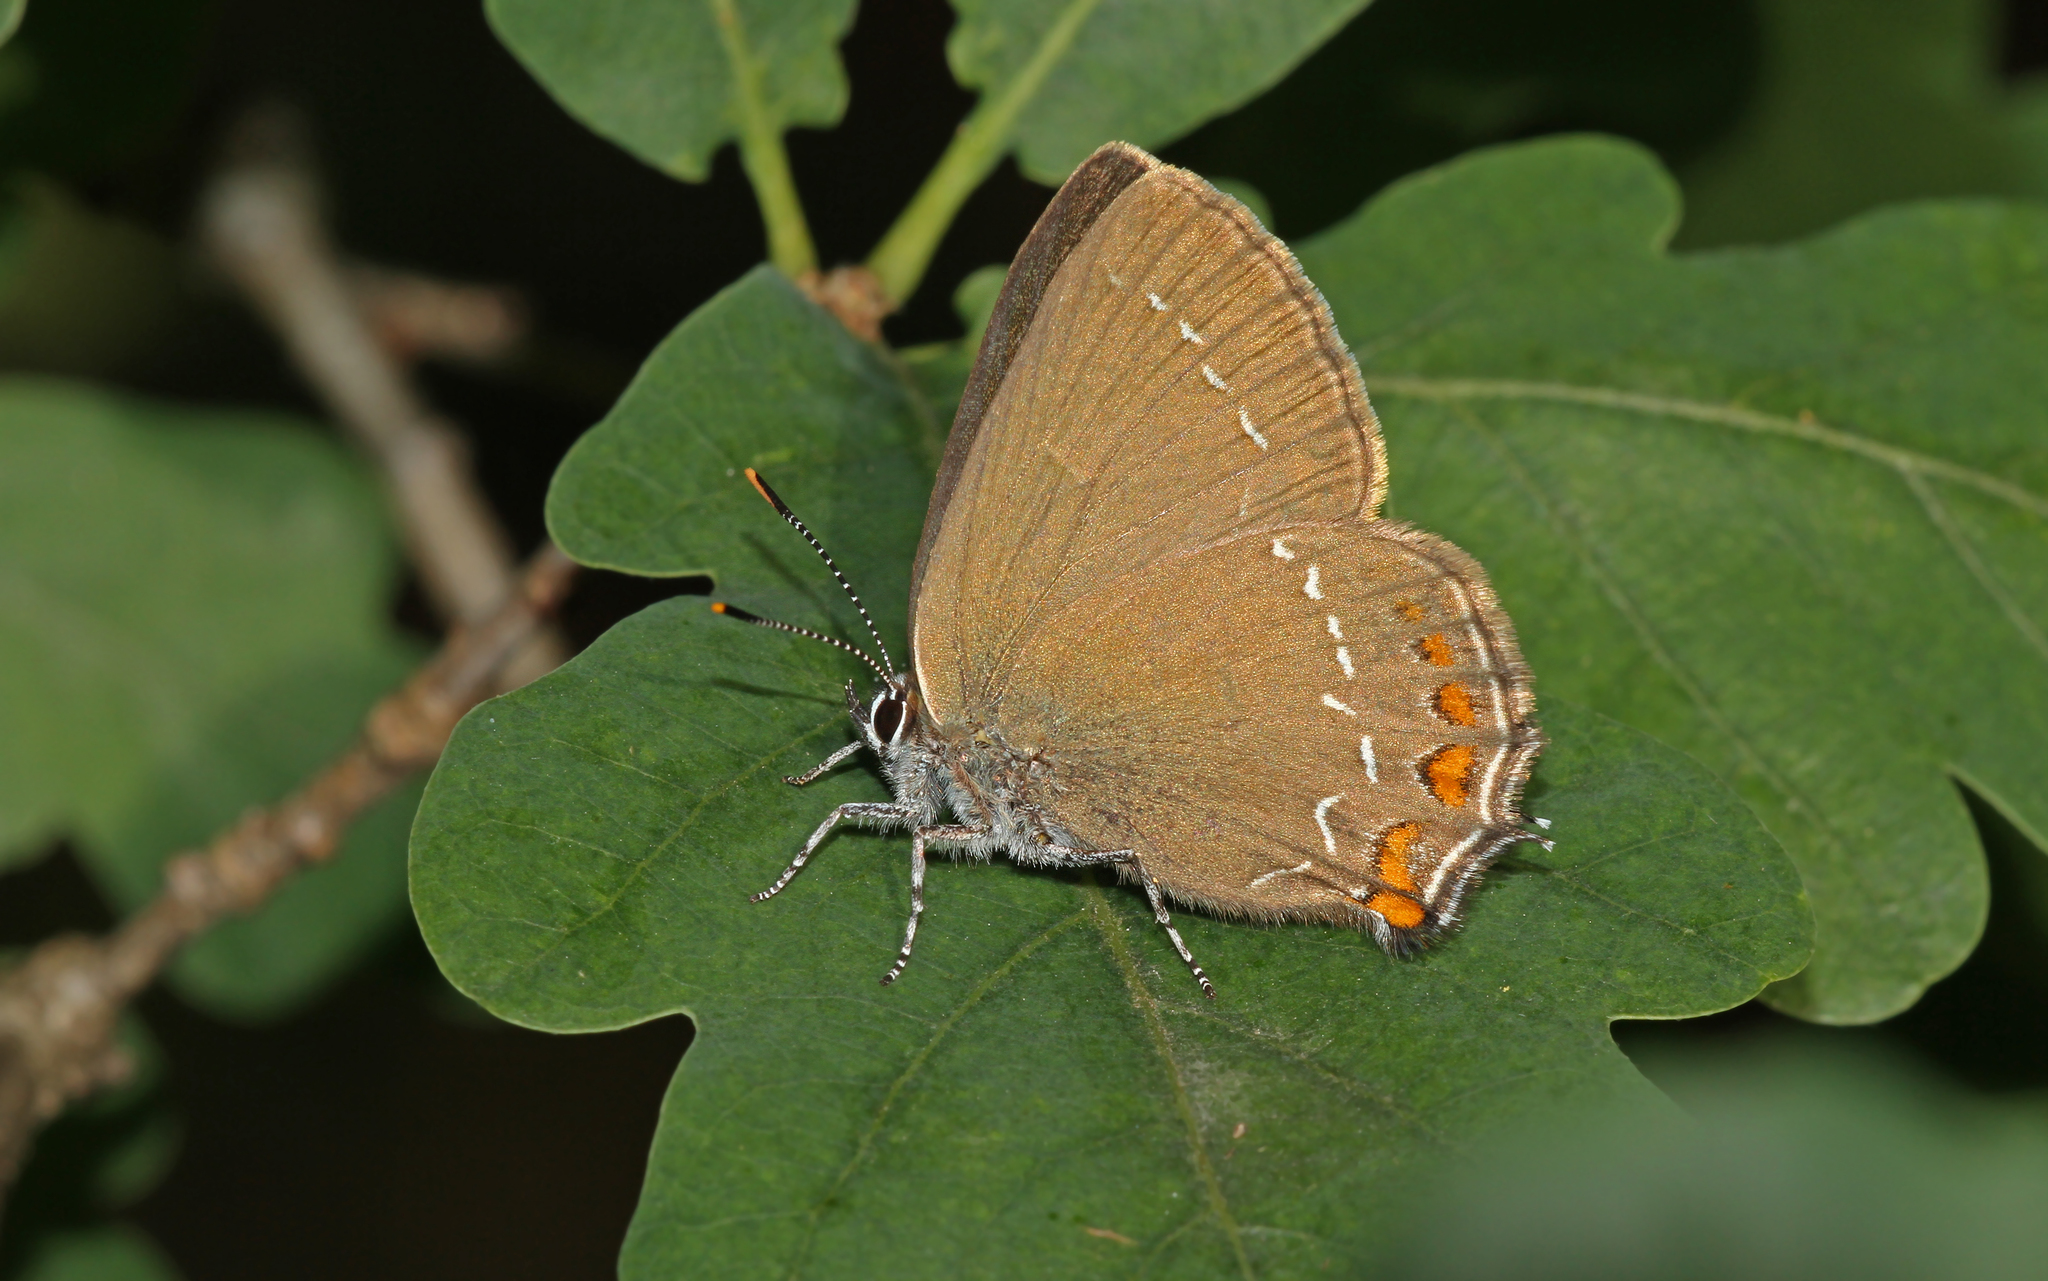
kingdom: Animalia
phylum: Arthropoda
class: Insecta
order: Lepidoptera
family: Lycaenidae
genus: Nordmannia
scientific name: Nordmannia ilicis
